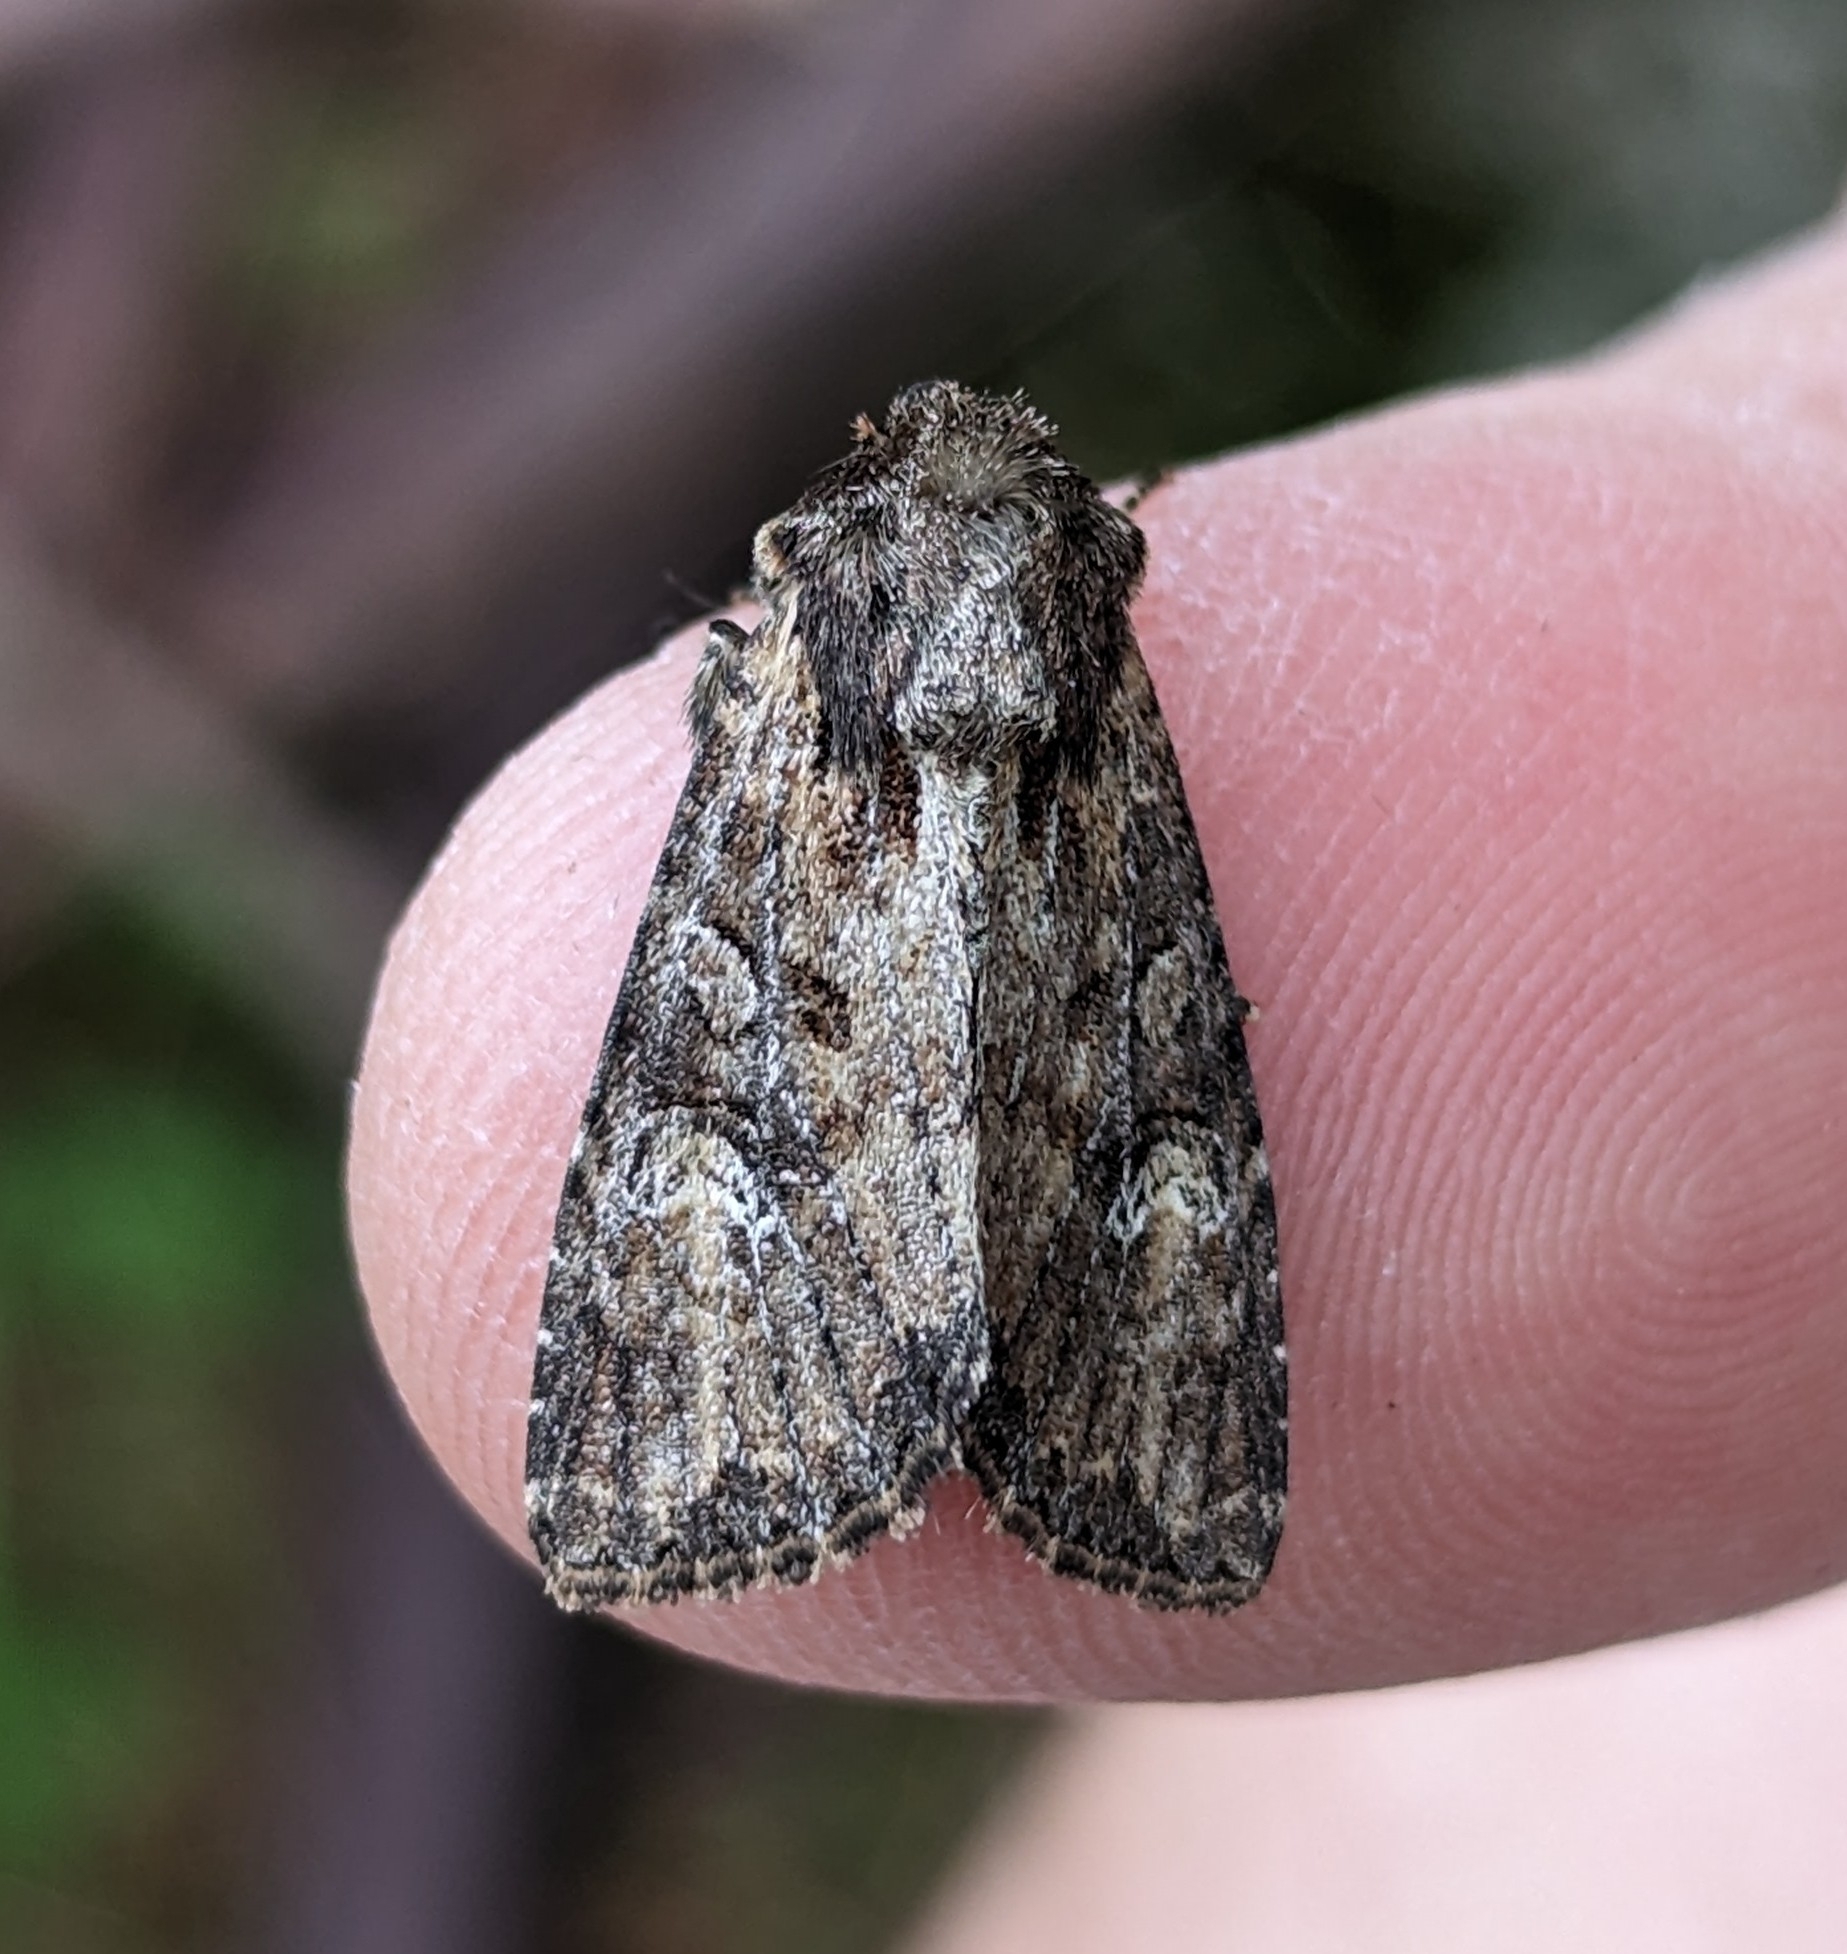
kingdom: Animalia
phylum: Arthropoda
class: Insecta
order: Lepidoptera
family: Noctuidae
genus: Apamea
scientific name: Apamea unanimis
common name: Small clouded brindle
